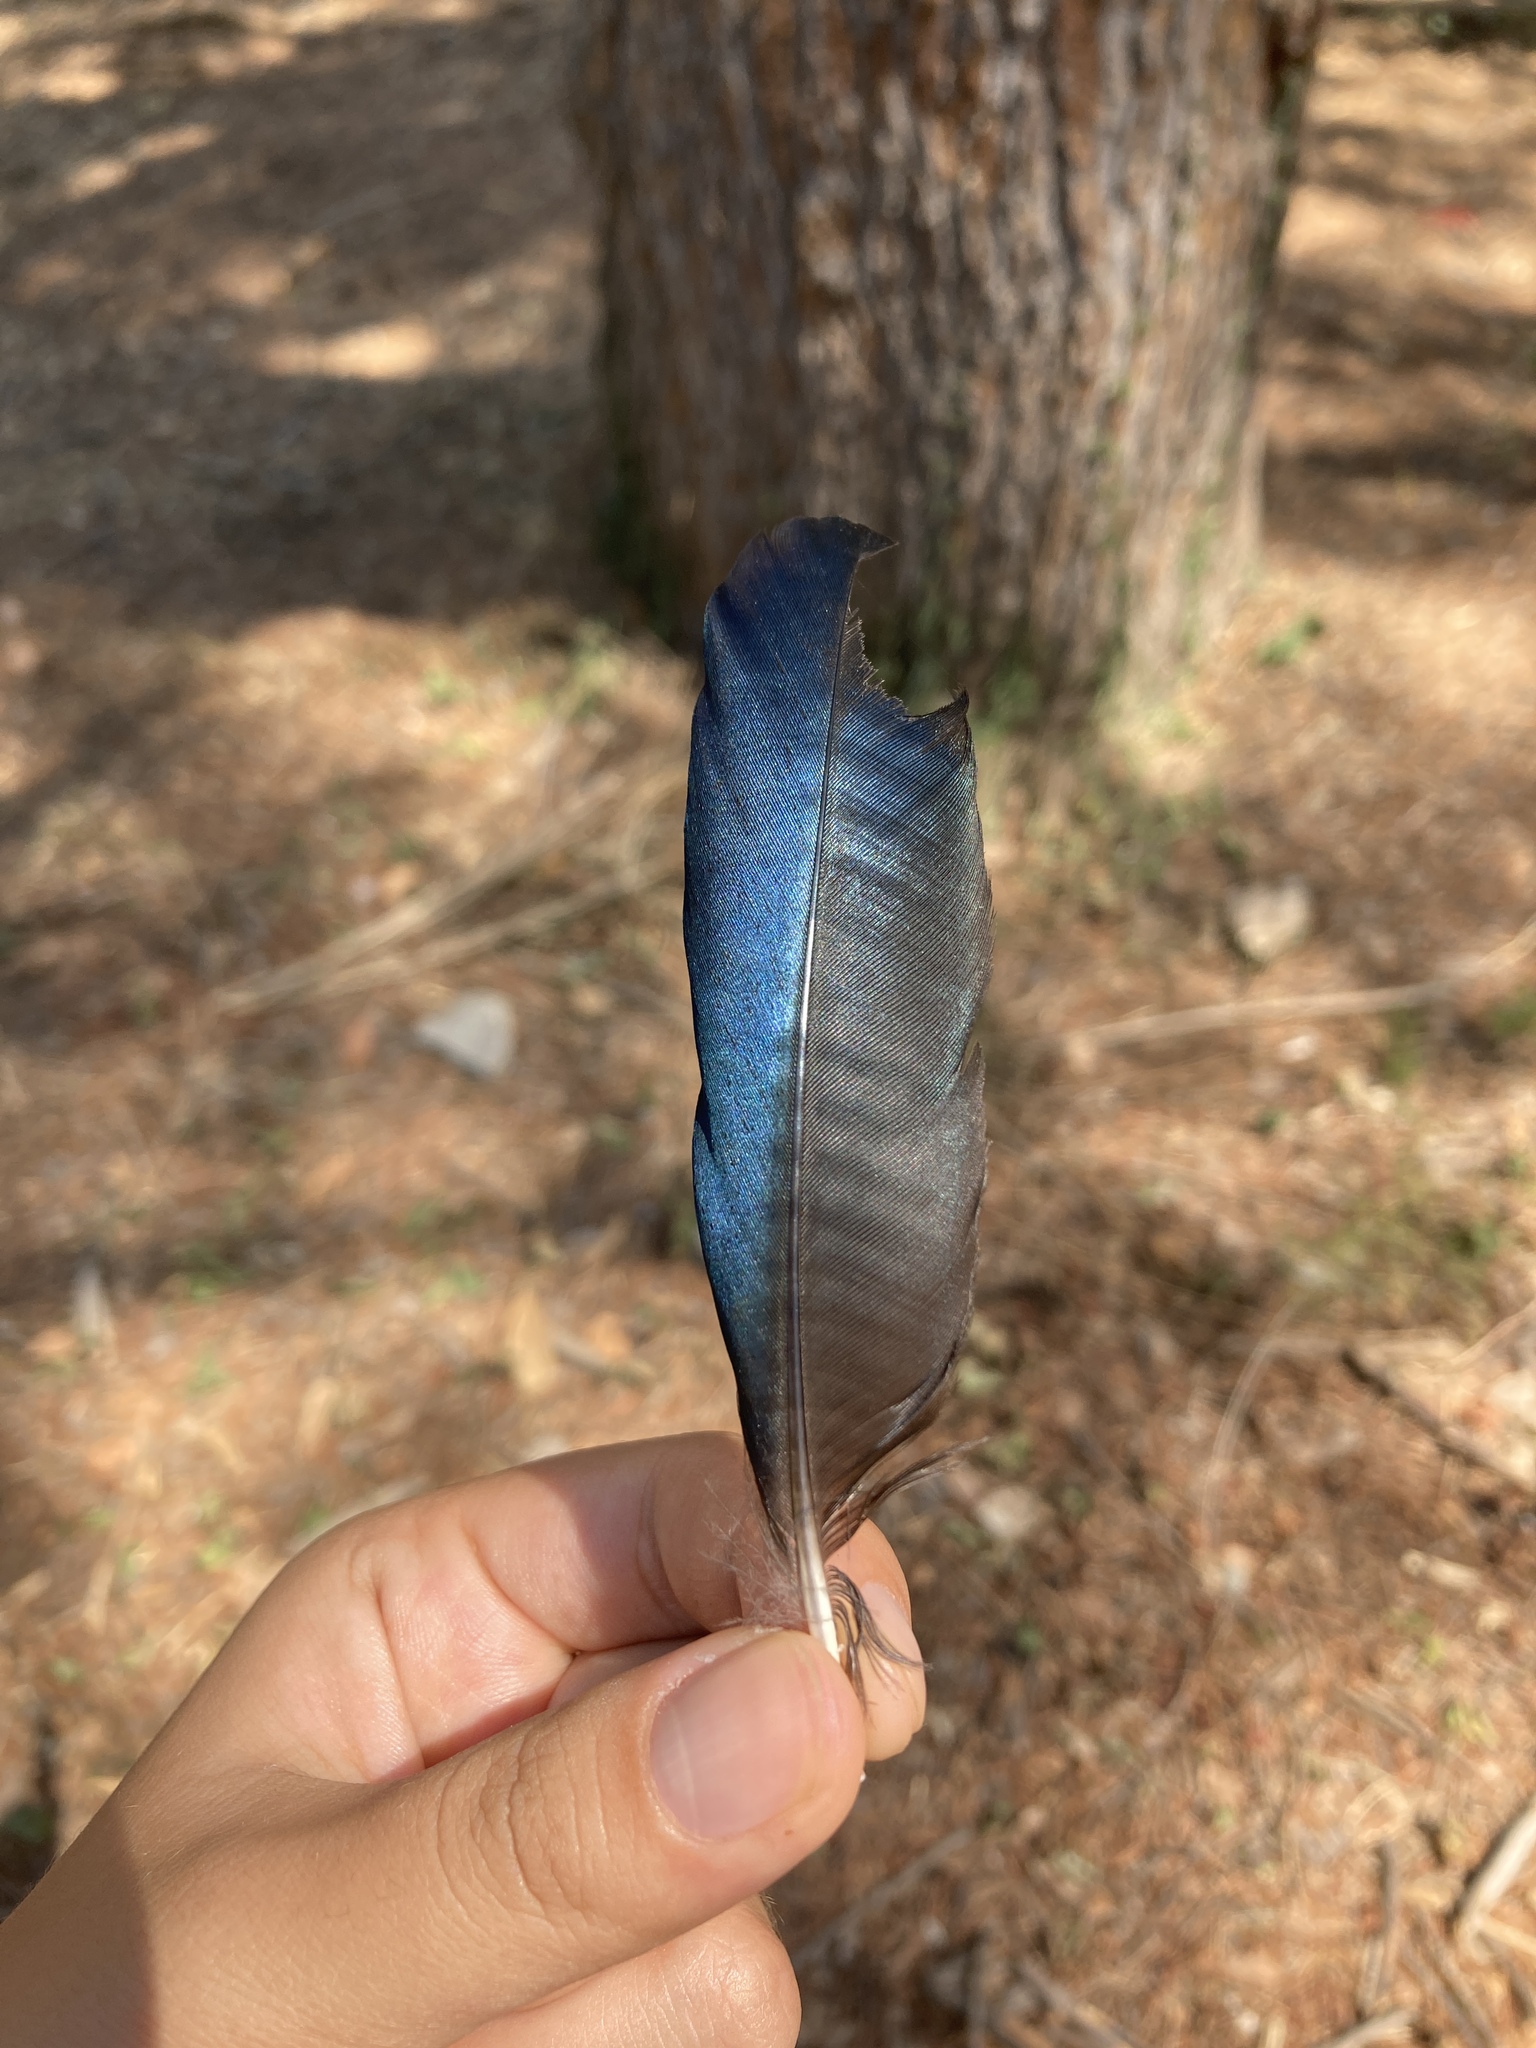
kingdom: Animalia
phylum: Chordata
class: Aves
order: Passeriformes
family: Corvidae
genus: Pica
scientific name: Pica pica
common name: Eurasian magpie
